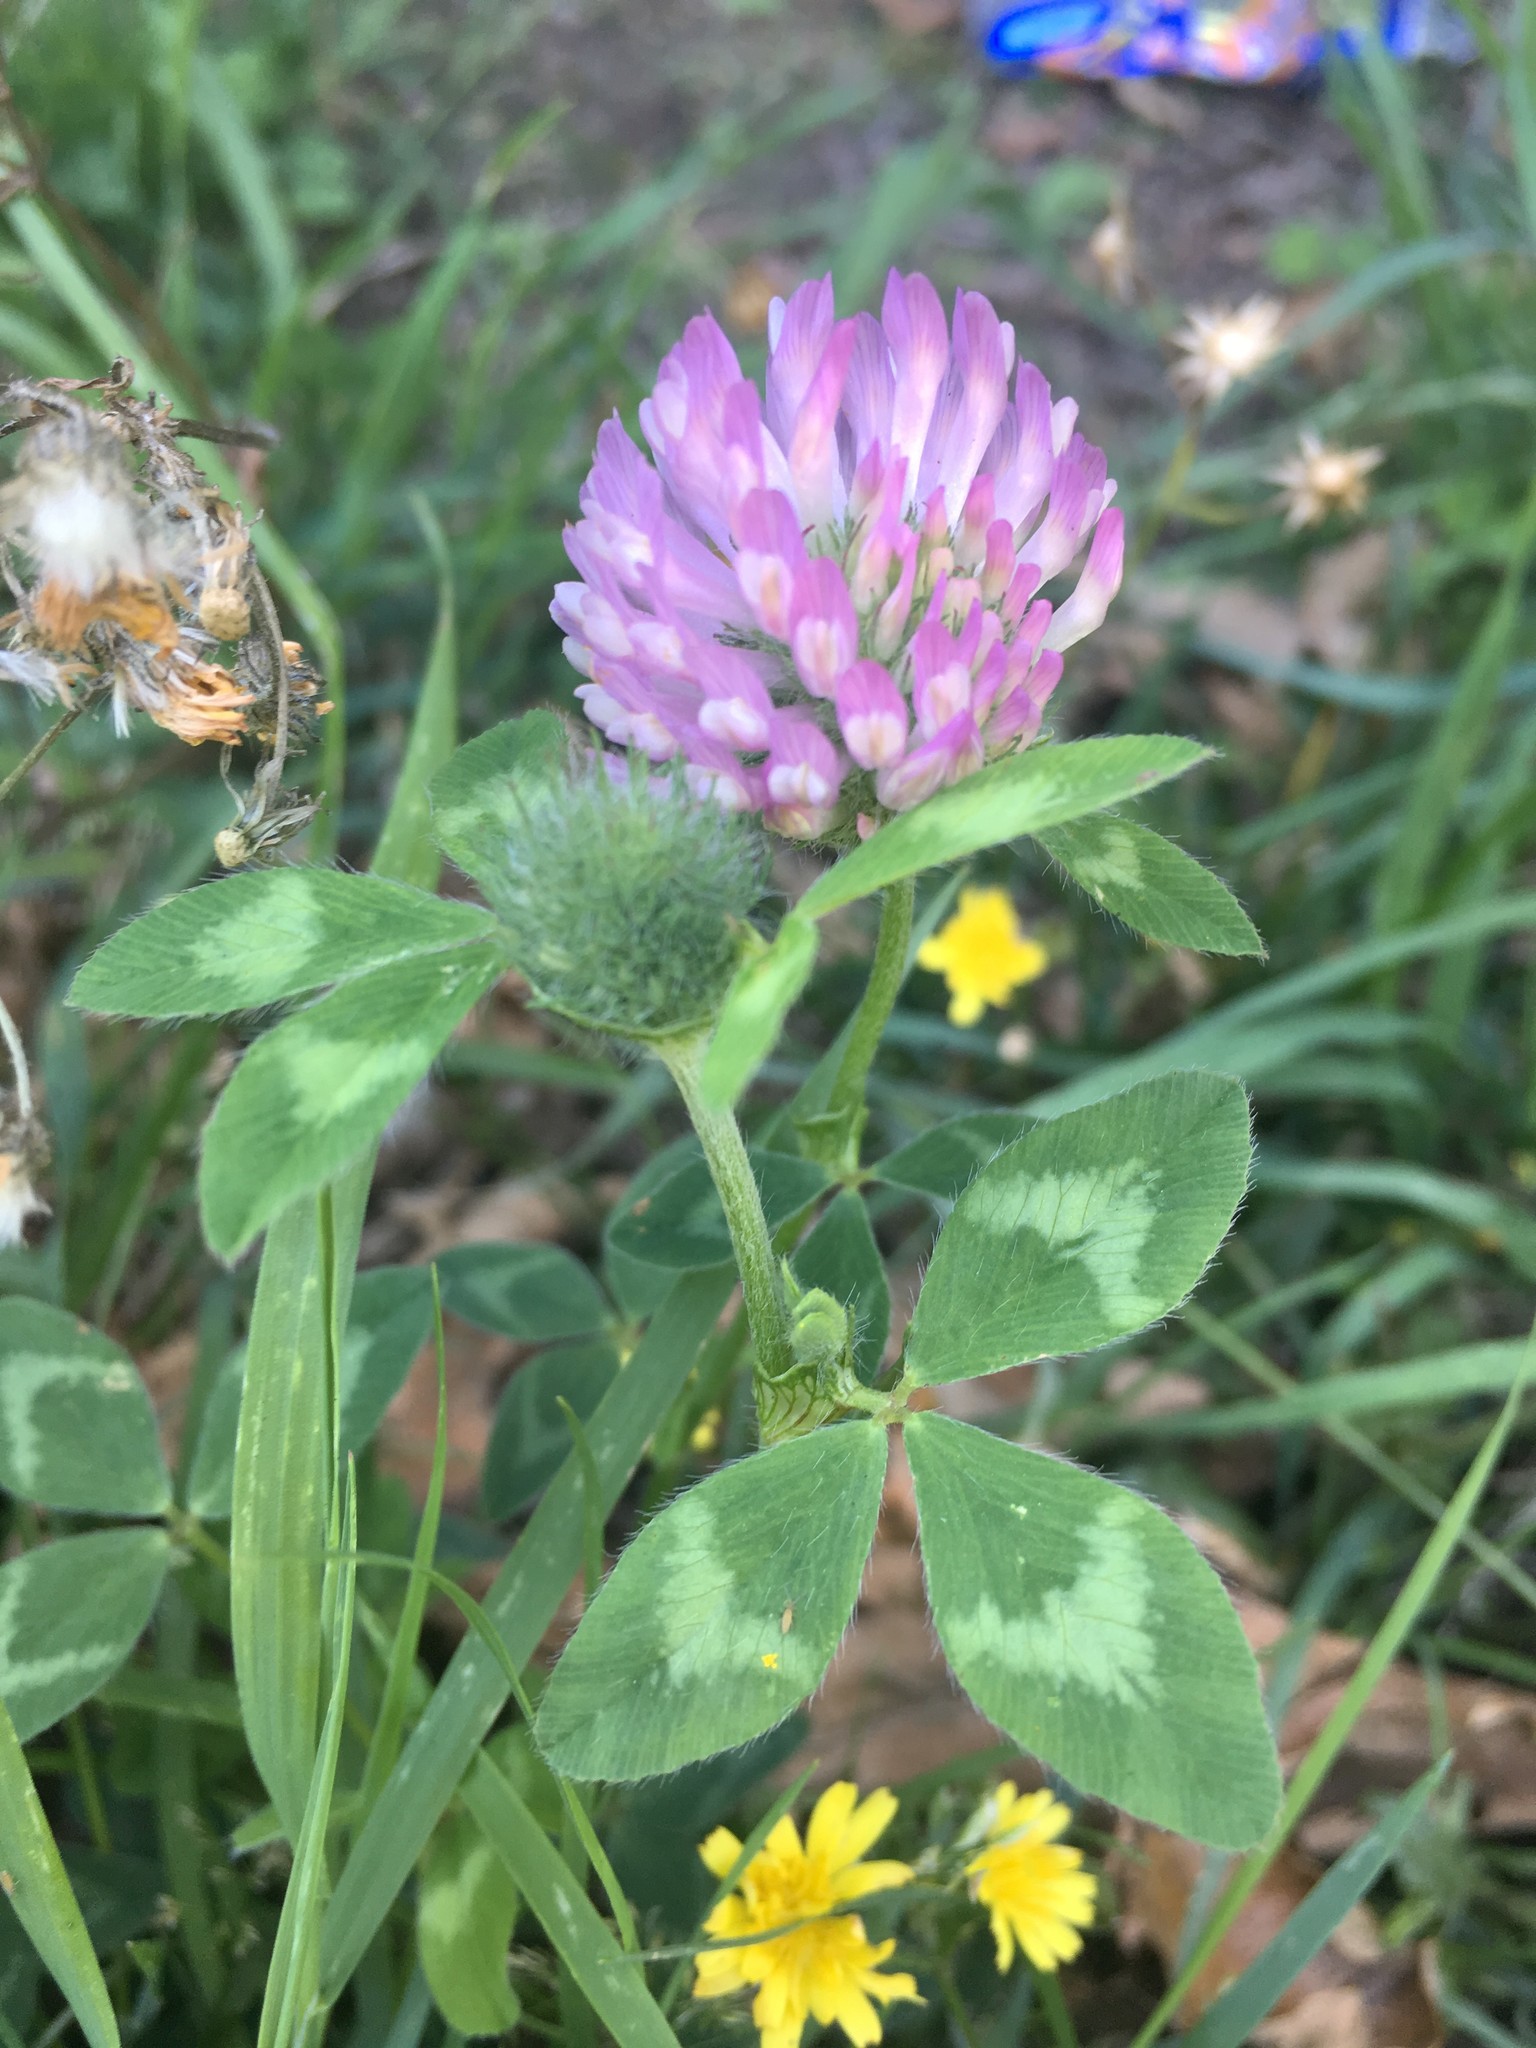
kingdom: Plantae
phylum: Tracheophyta
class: Magnoliopsida
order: Fabales
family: Fabaceae
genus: Trifolium
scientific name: Trifolium pratense
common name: Red clover
